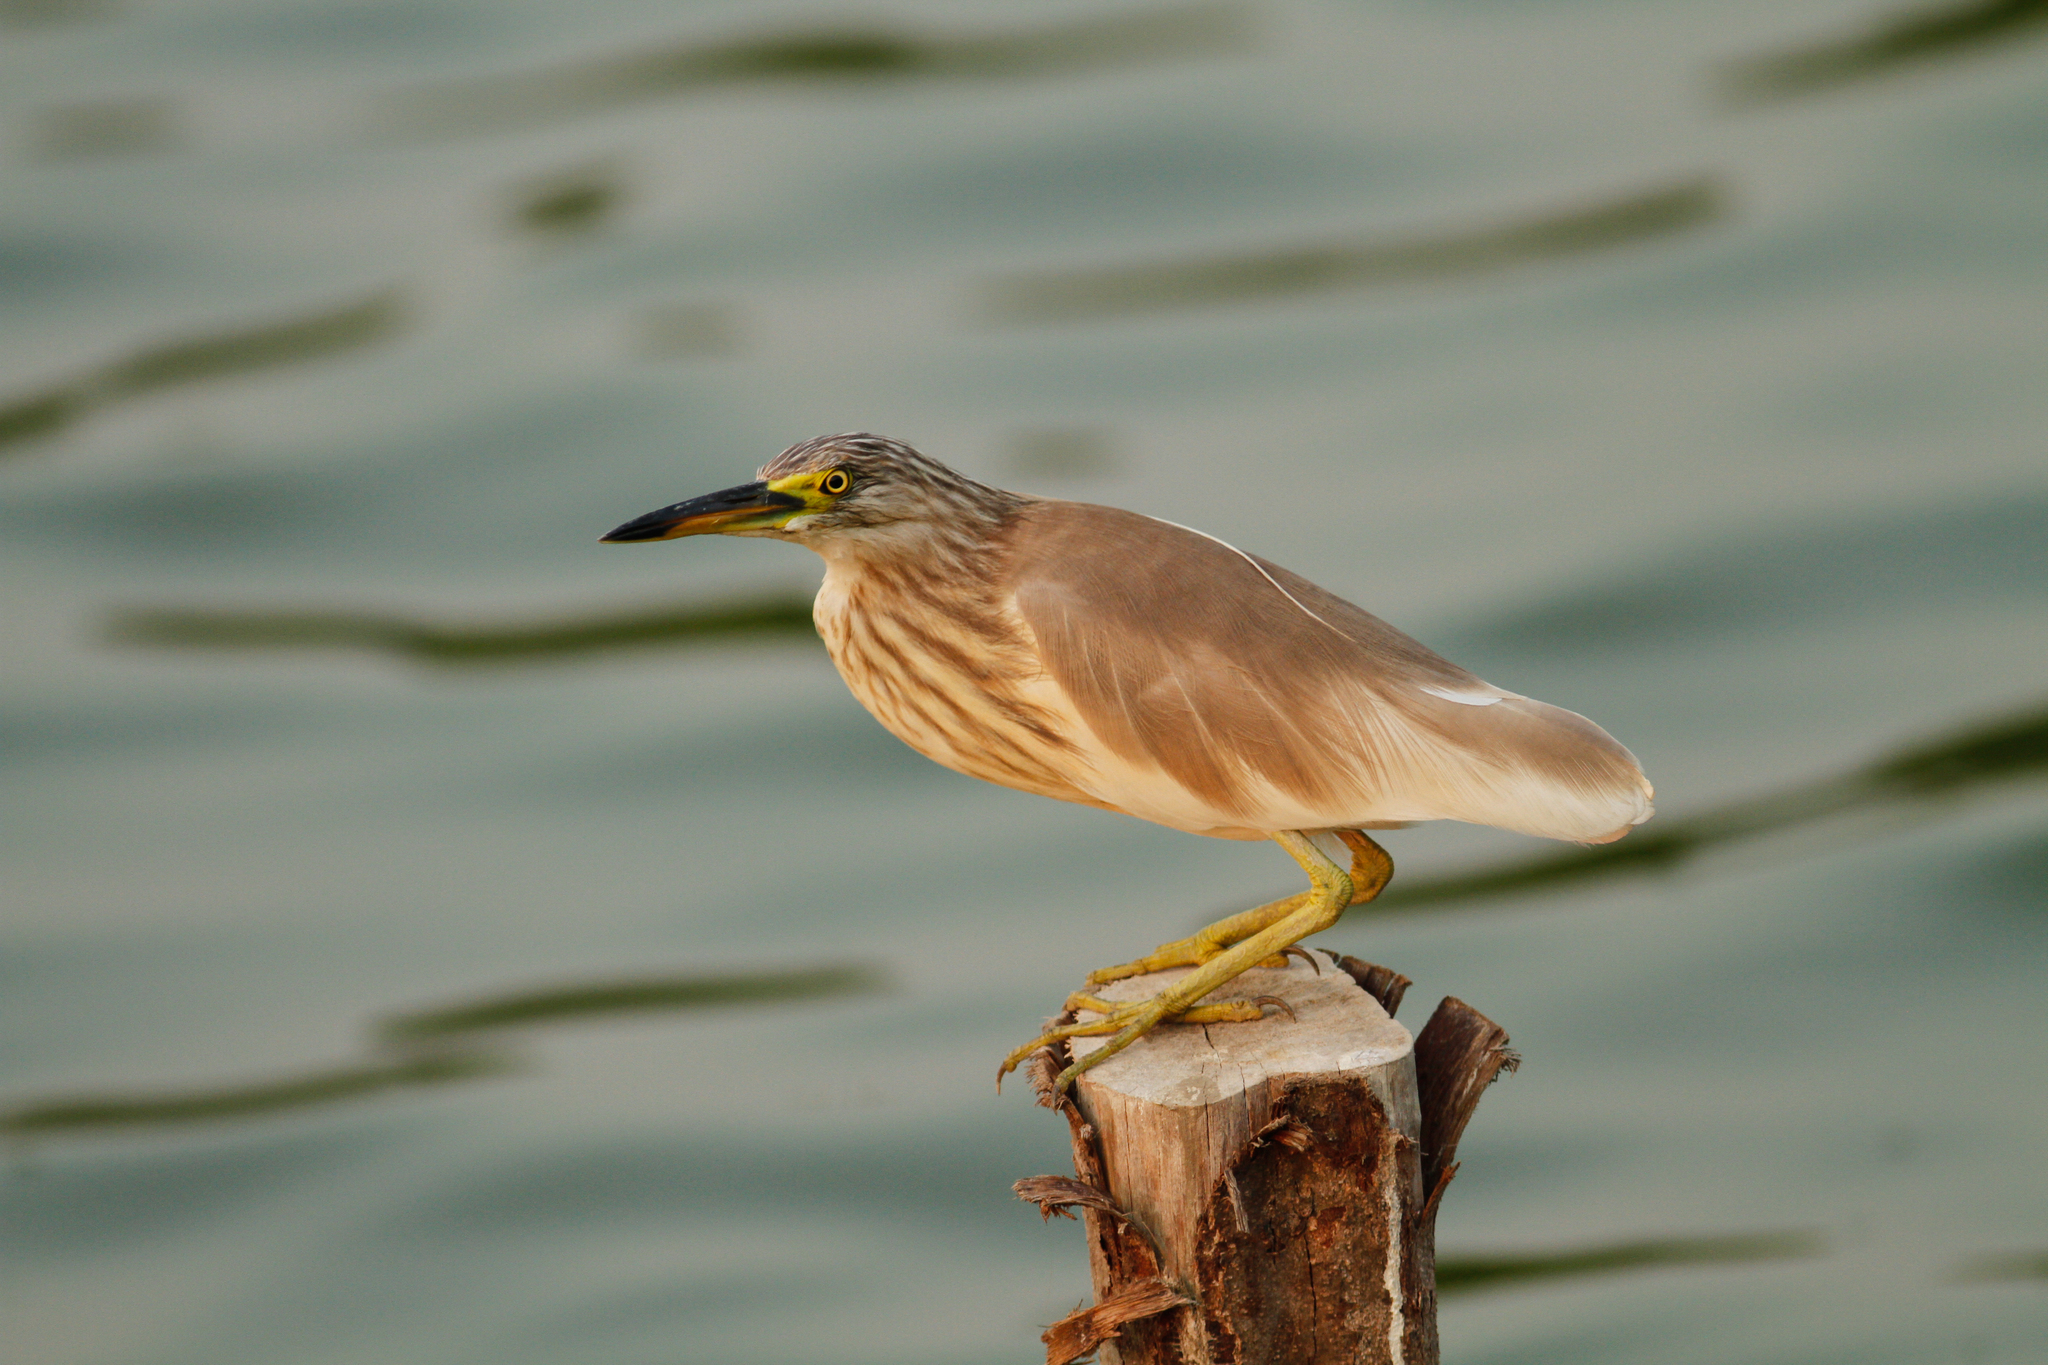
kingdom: Animalia
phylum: Chordata
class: Aves
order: Pelecaniformes
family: Ardeidae
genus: Ardeola
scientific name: Ardeola
